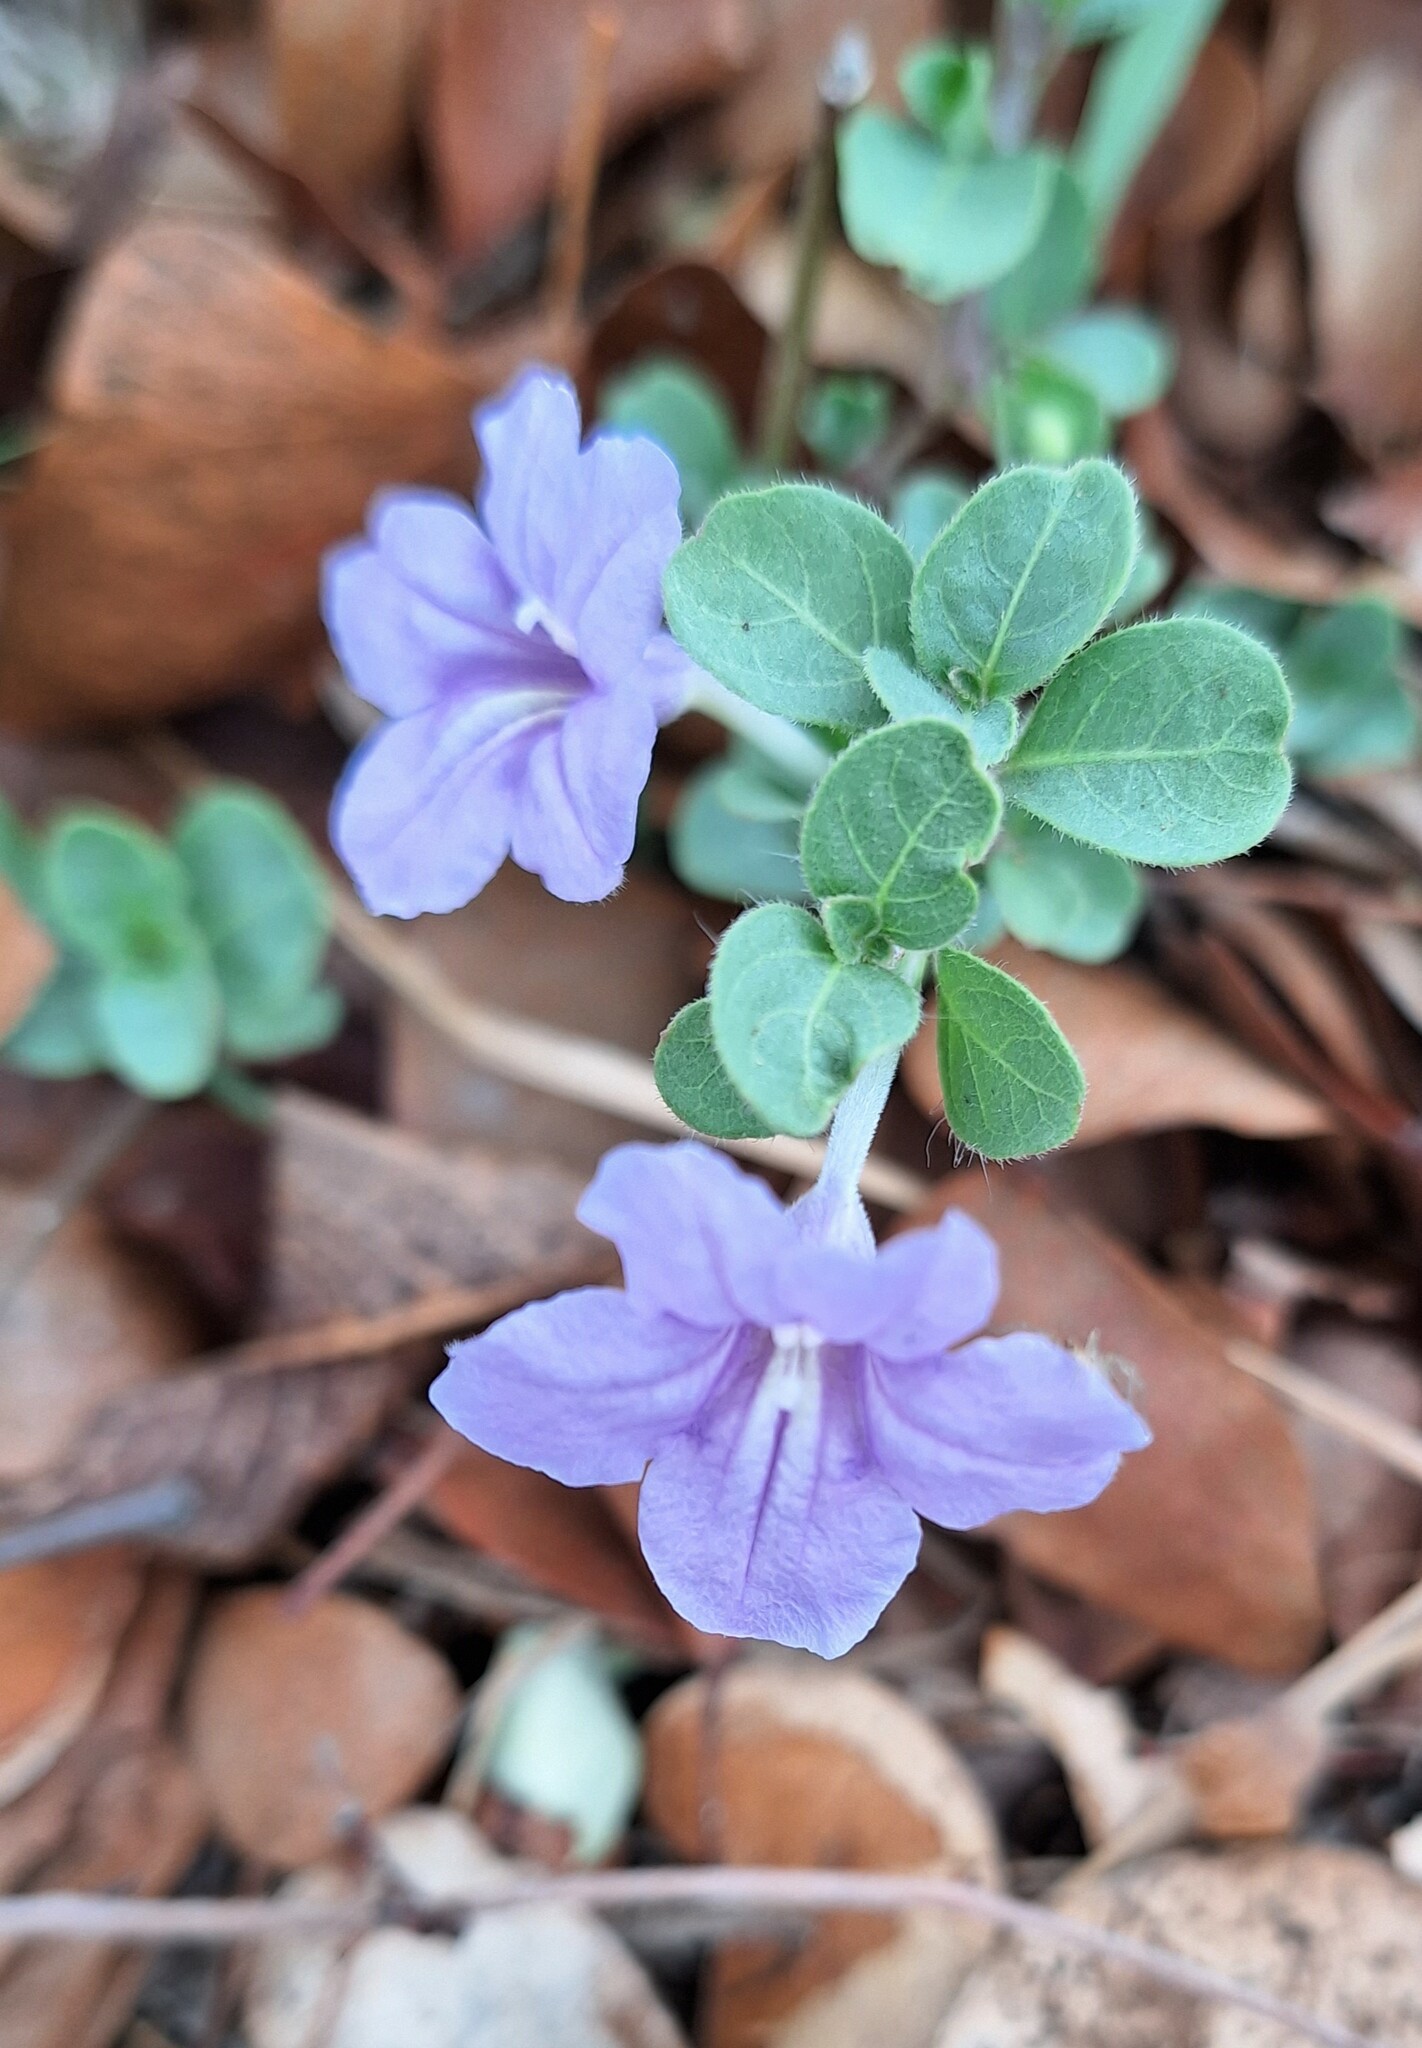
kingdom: Plantae
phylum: Tracheophyta
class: Magnoliopsida
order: Lamiales
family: Acanthaceae
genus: Ruellia
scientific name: Ruellia cordata
